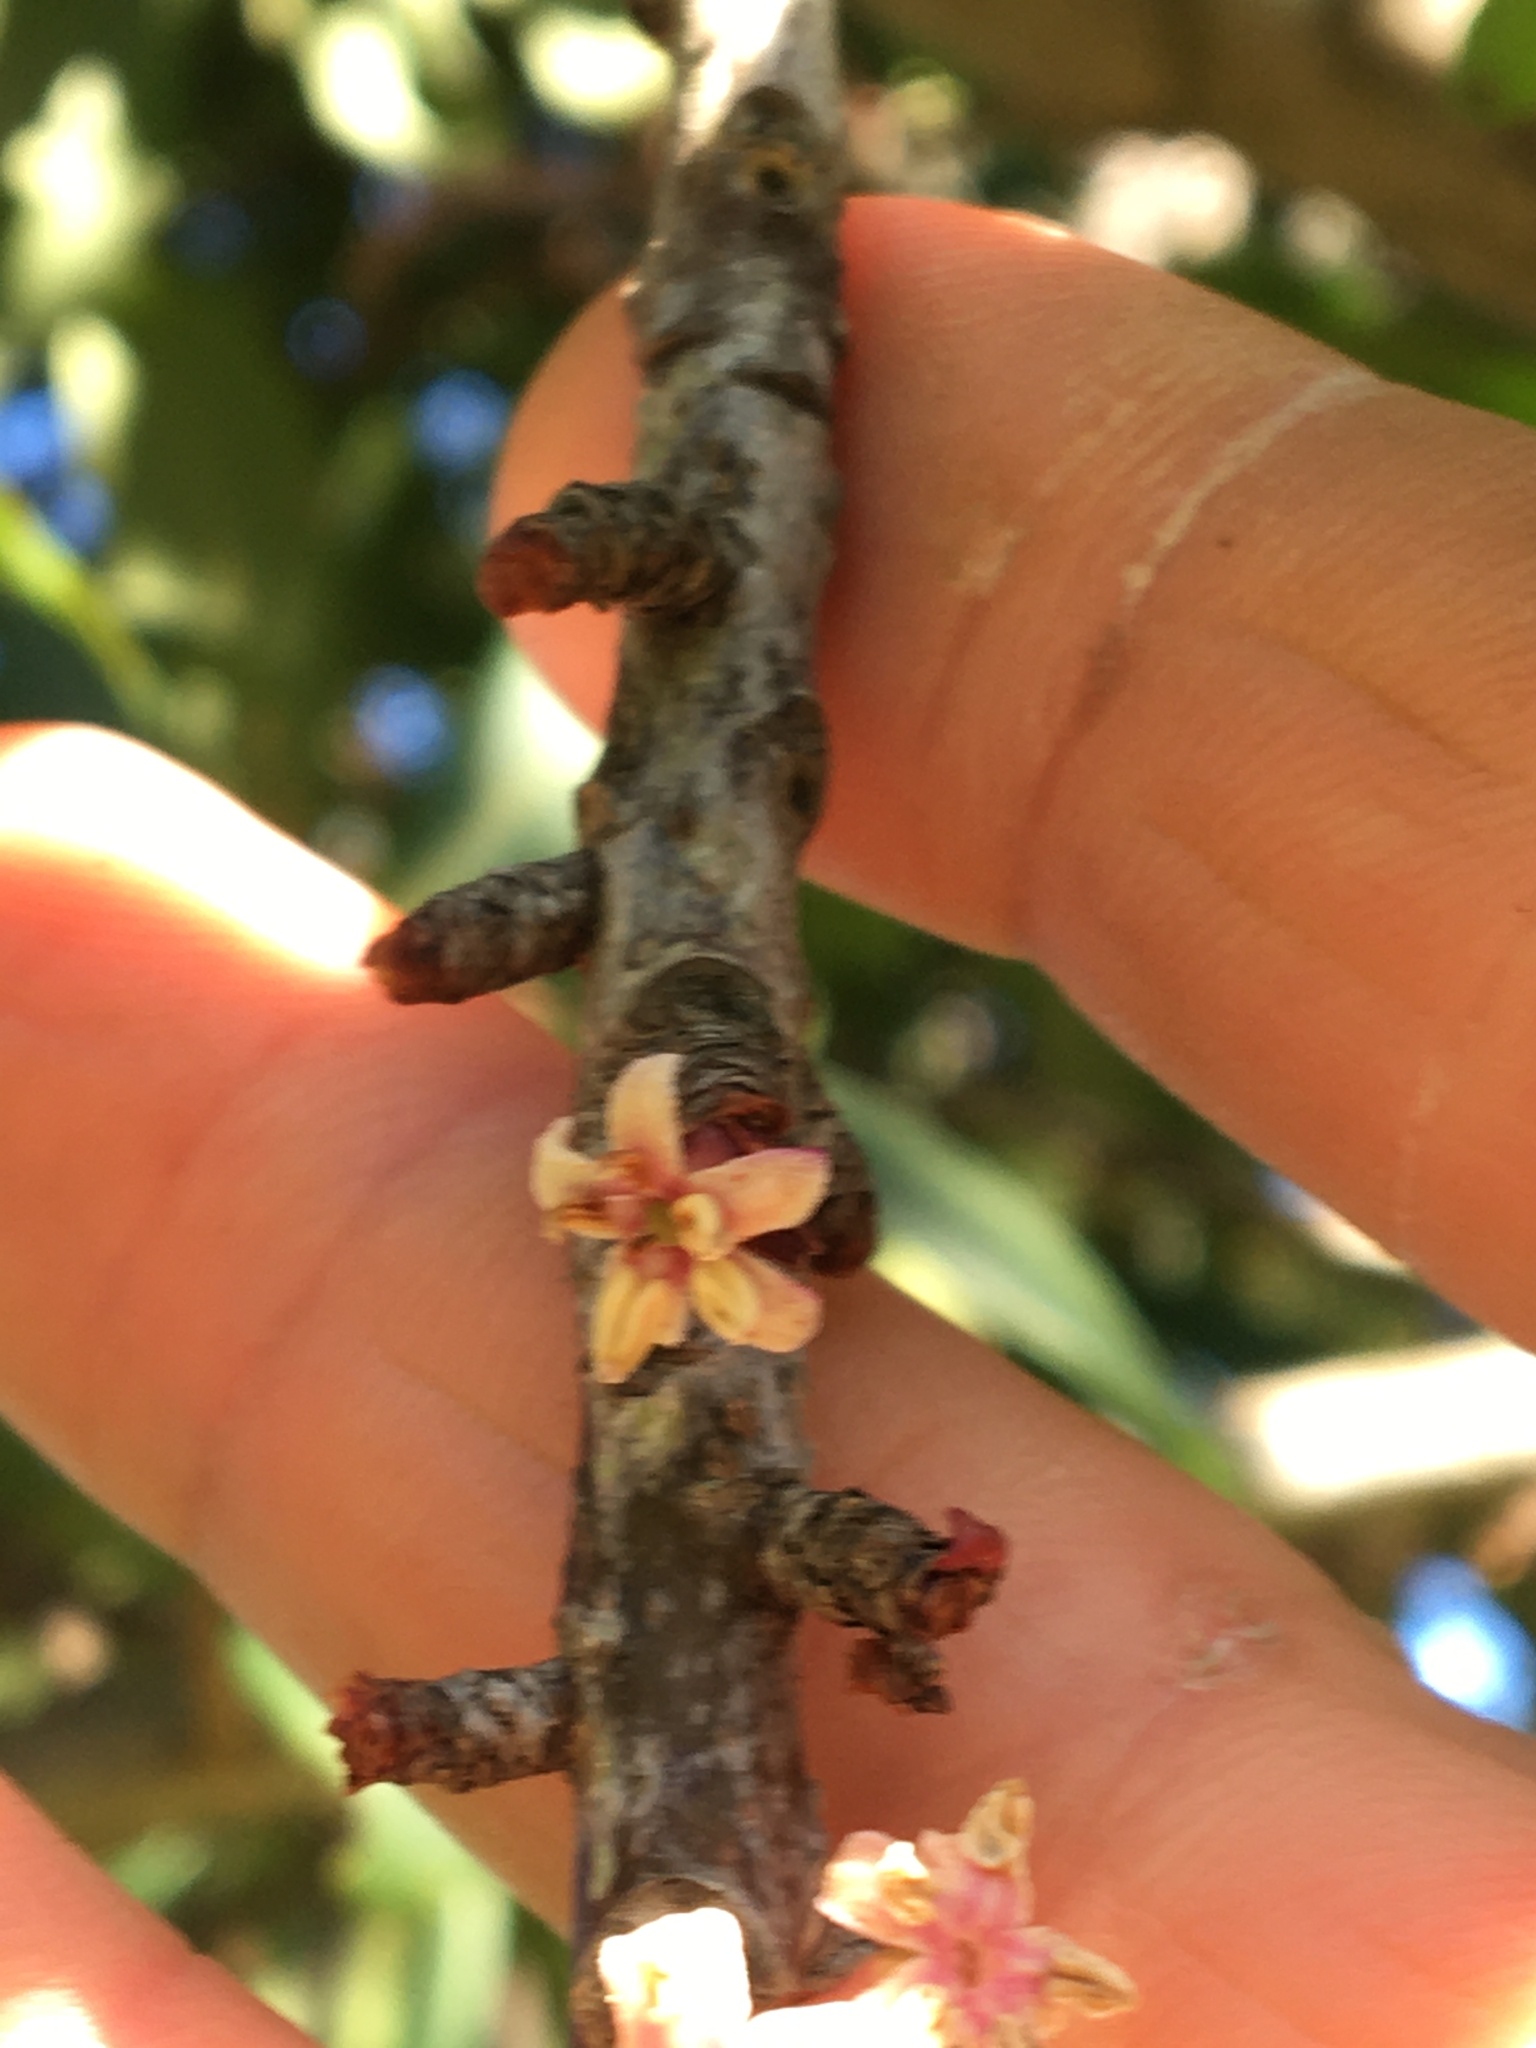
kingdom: Plantae
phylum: Tracheophyta
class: Magnoliopsida
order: Ericales
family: Primulaceae
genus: Myrsine
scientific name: Myrsine melanophloeos
